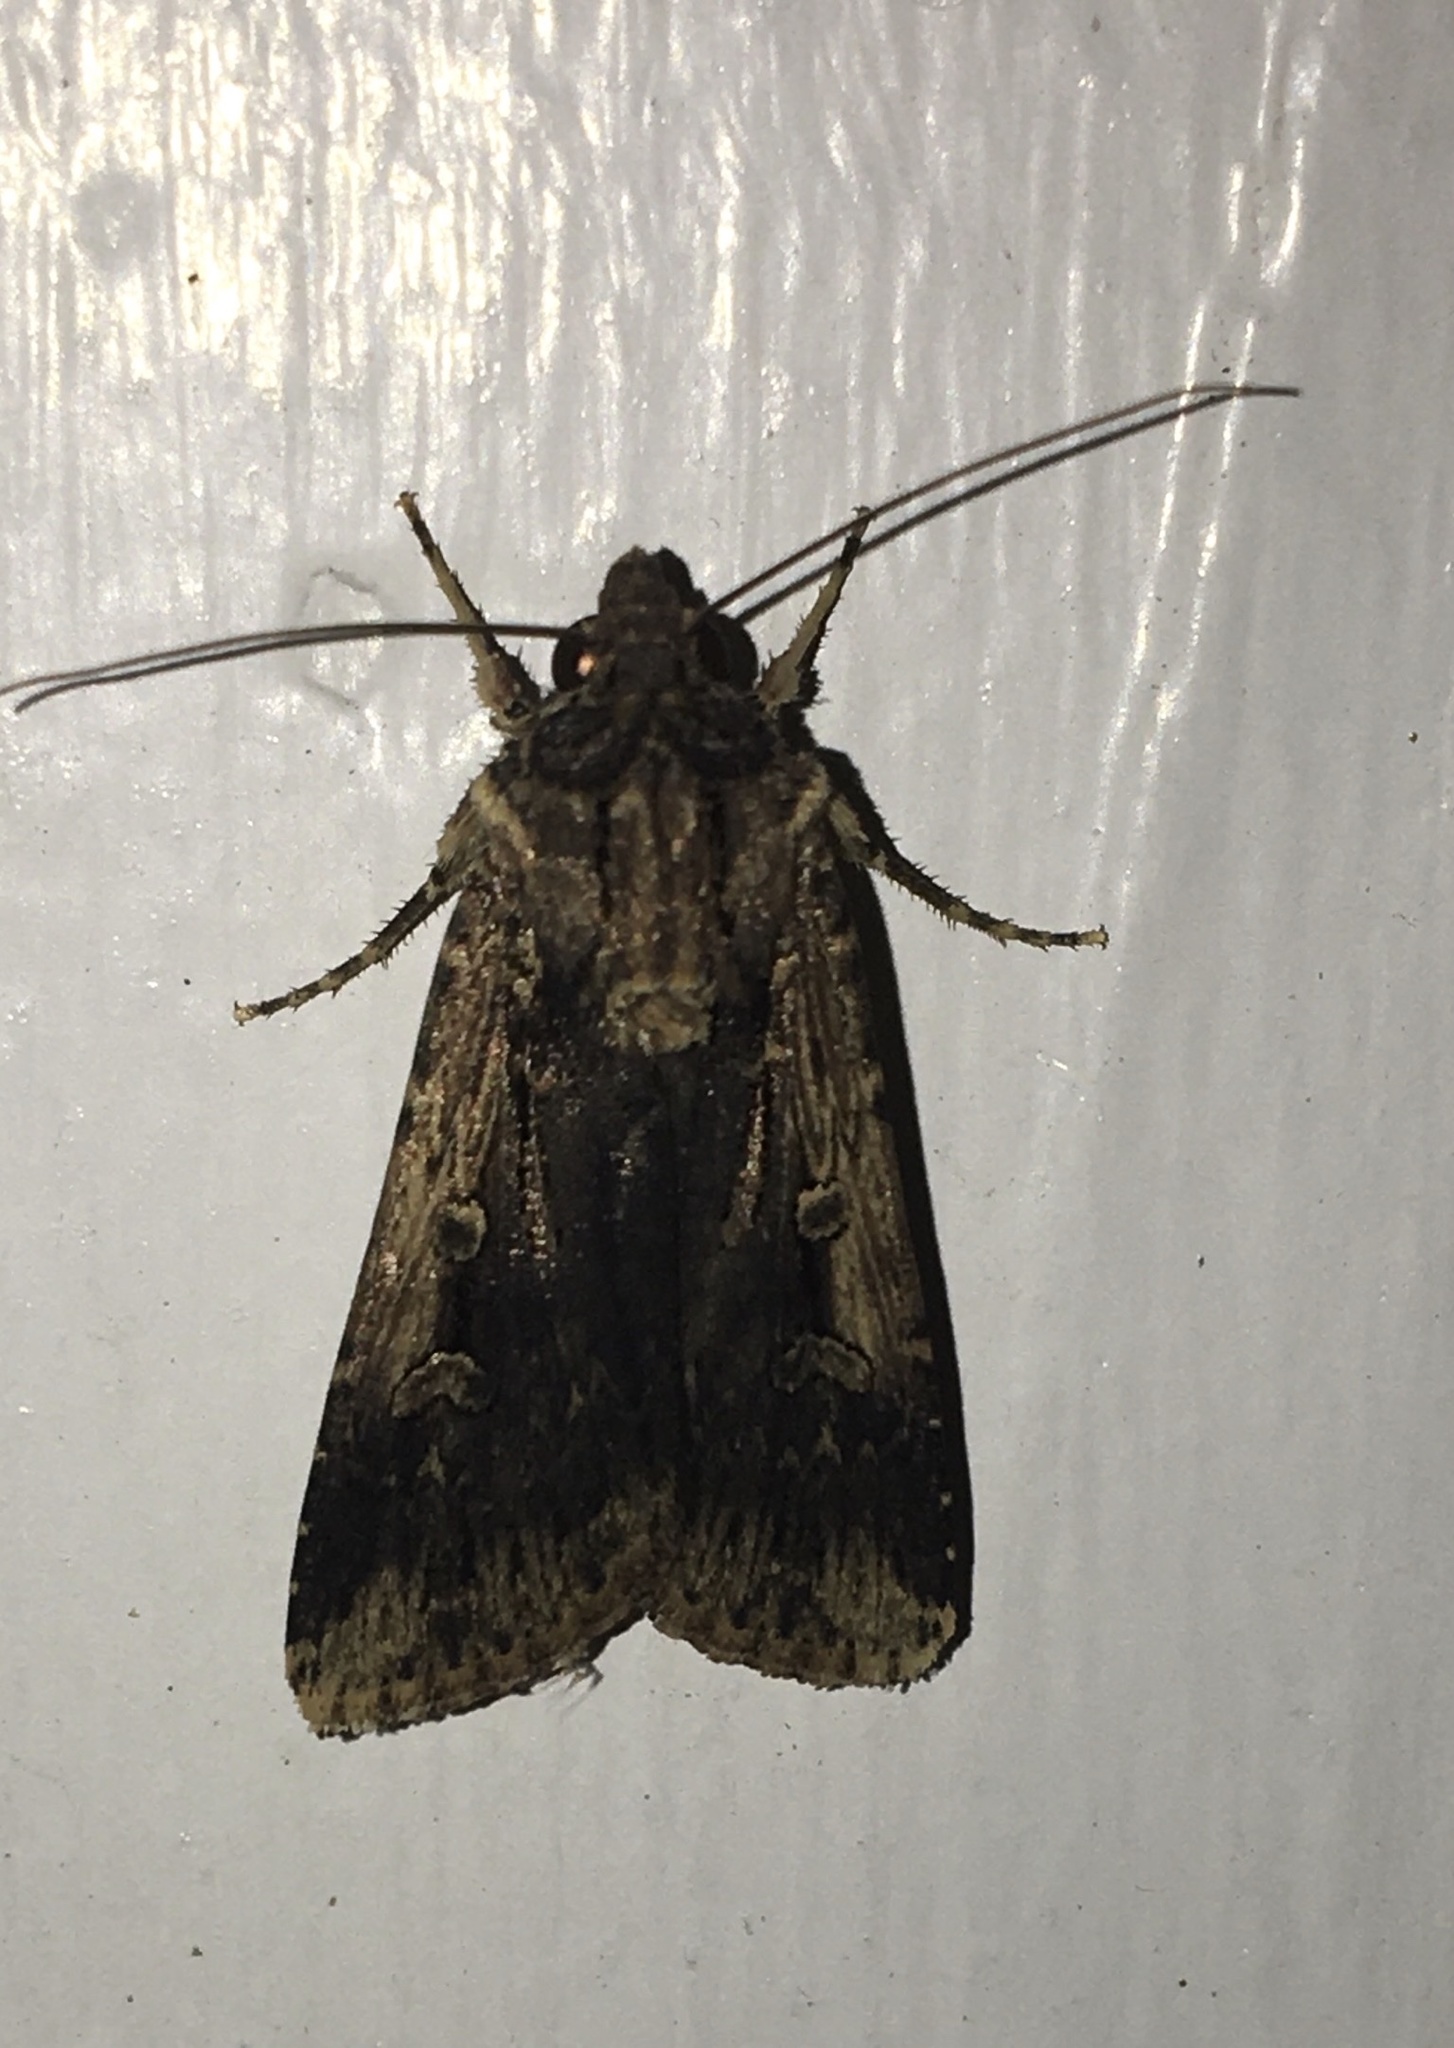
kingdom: Animalia
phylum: Arthropoda
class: Insecta
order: Lepidoptera
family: Noctuidae
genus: Feltia
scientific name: Feltia subterranea
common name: Granulate cutworm
